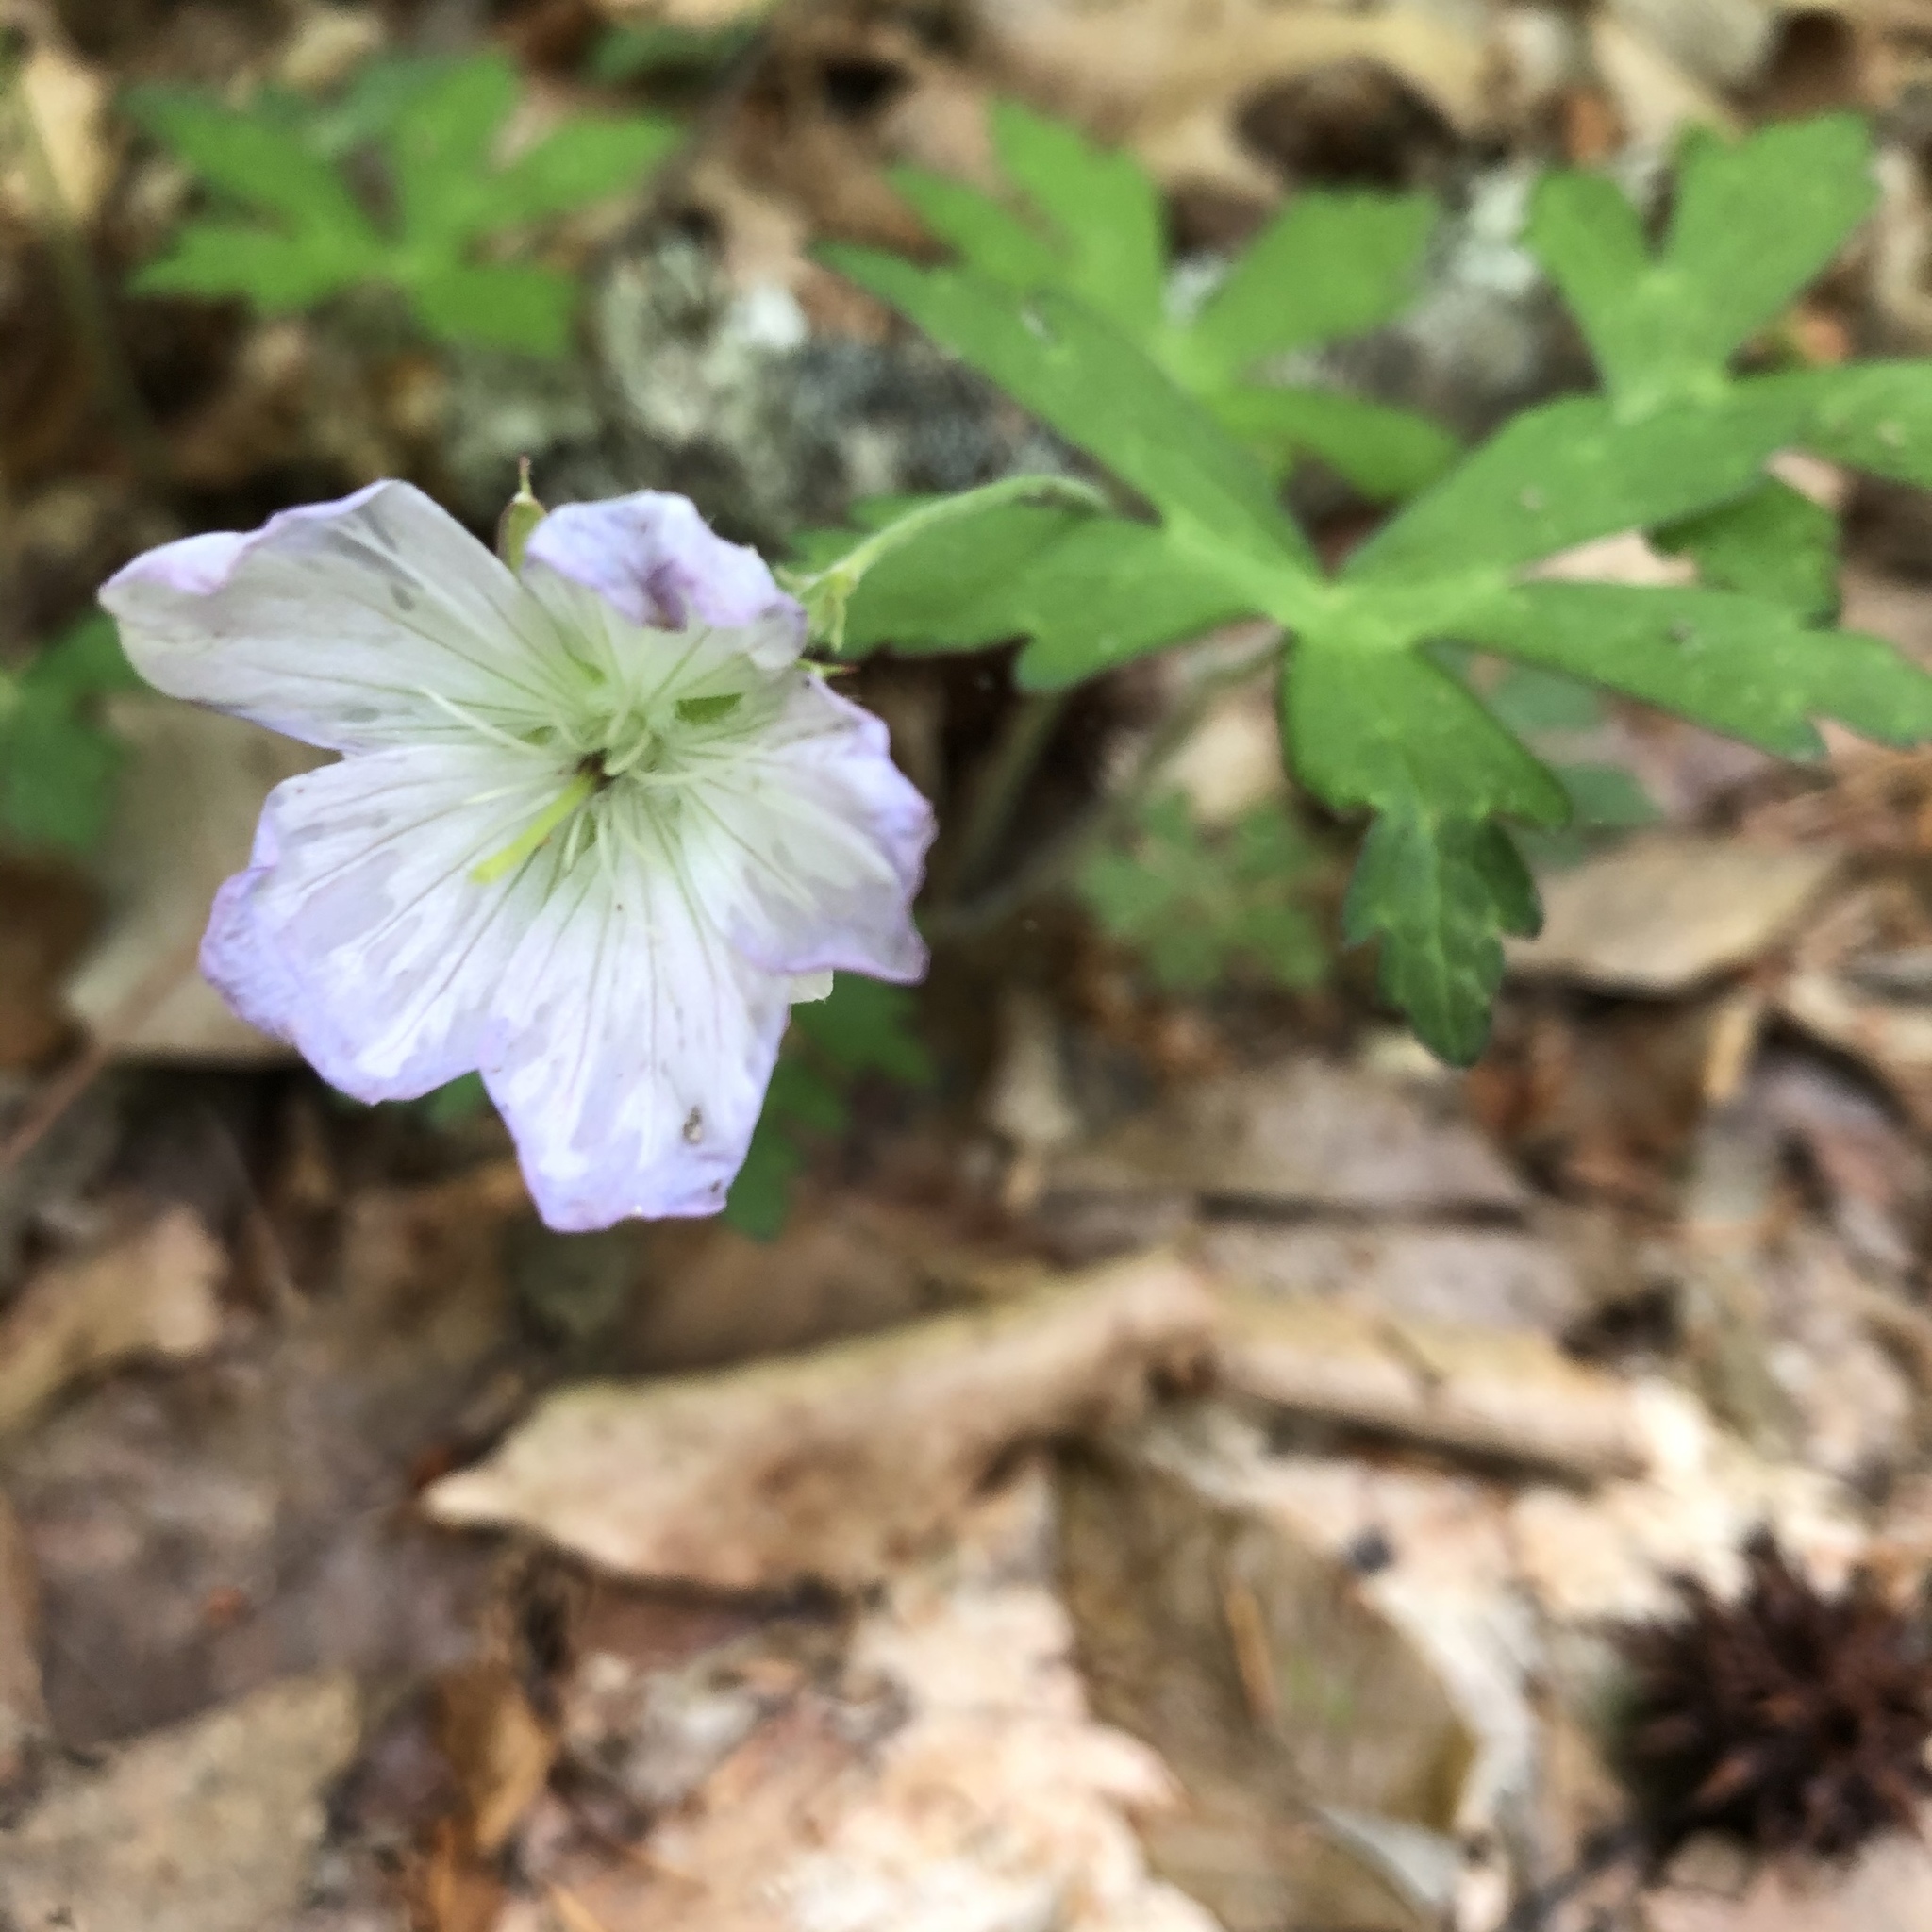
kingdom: Plantae
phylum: Tracheophyta
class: Magnoliopsida
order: Geraniales
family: Geraniaceae
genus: Geranium
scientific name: Geranium maculatum
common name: Spotted geranium
